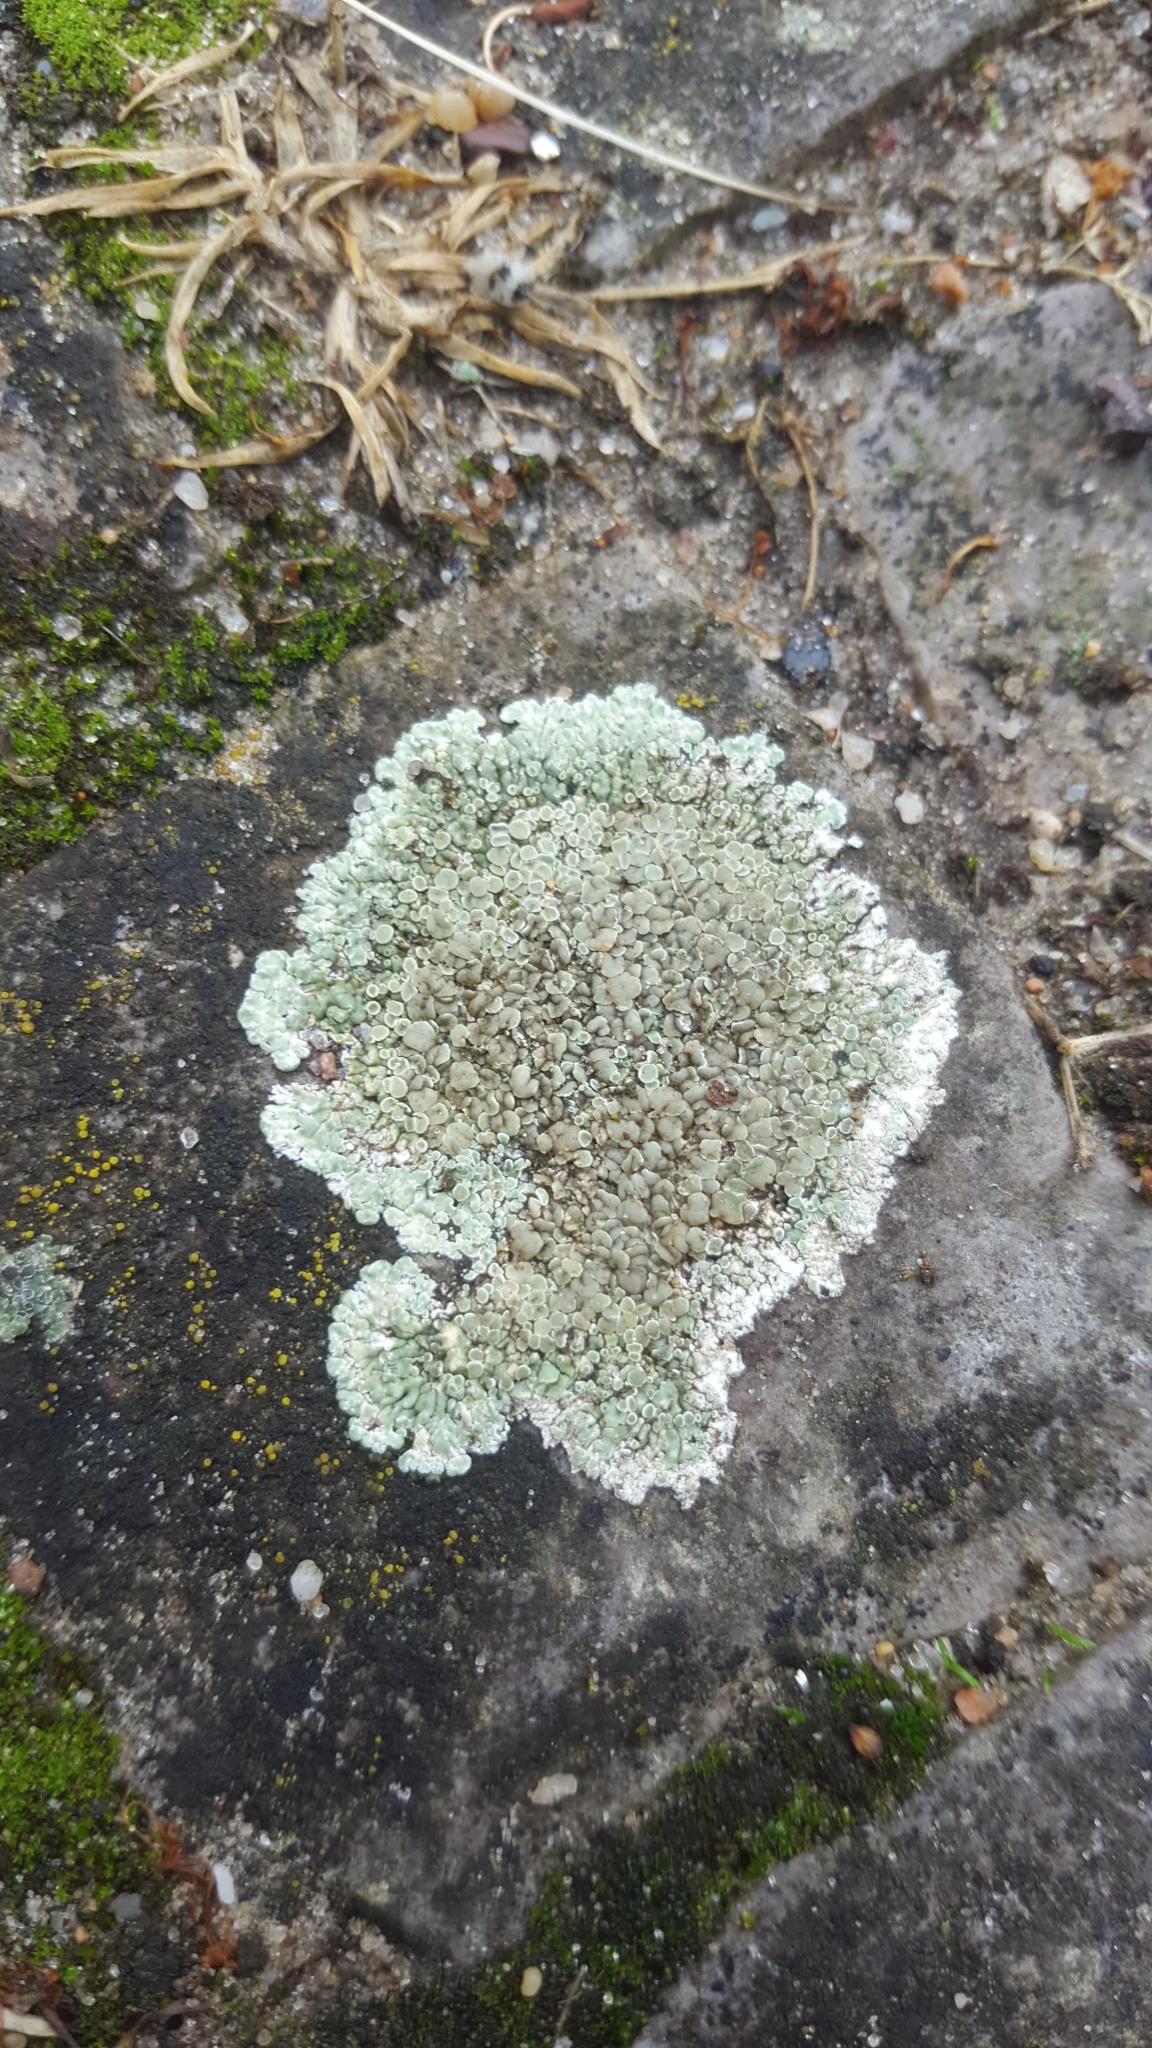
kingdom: Fungi
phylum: Ascomycota
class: Lecanoromycetes
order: Lecanorales
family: Lecanoraceae
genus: Protoparmeliopsis
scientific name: Protoparmeliopsis muralis
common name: Stonewall rim lichen
